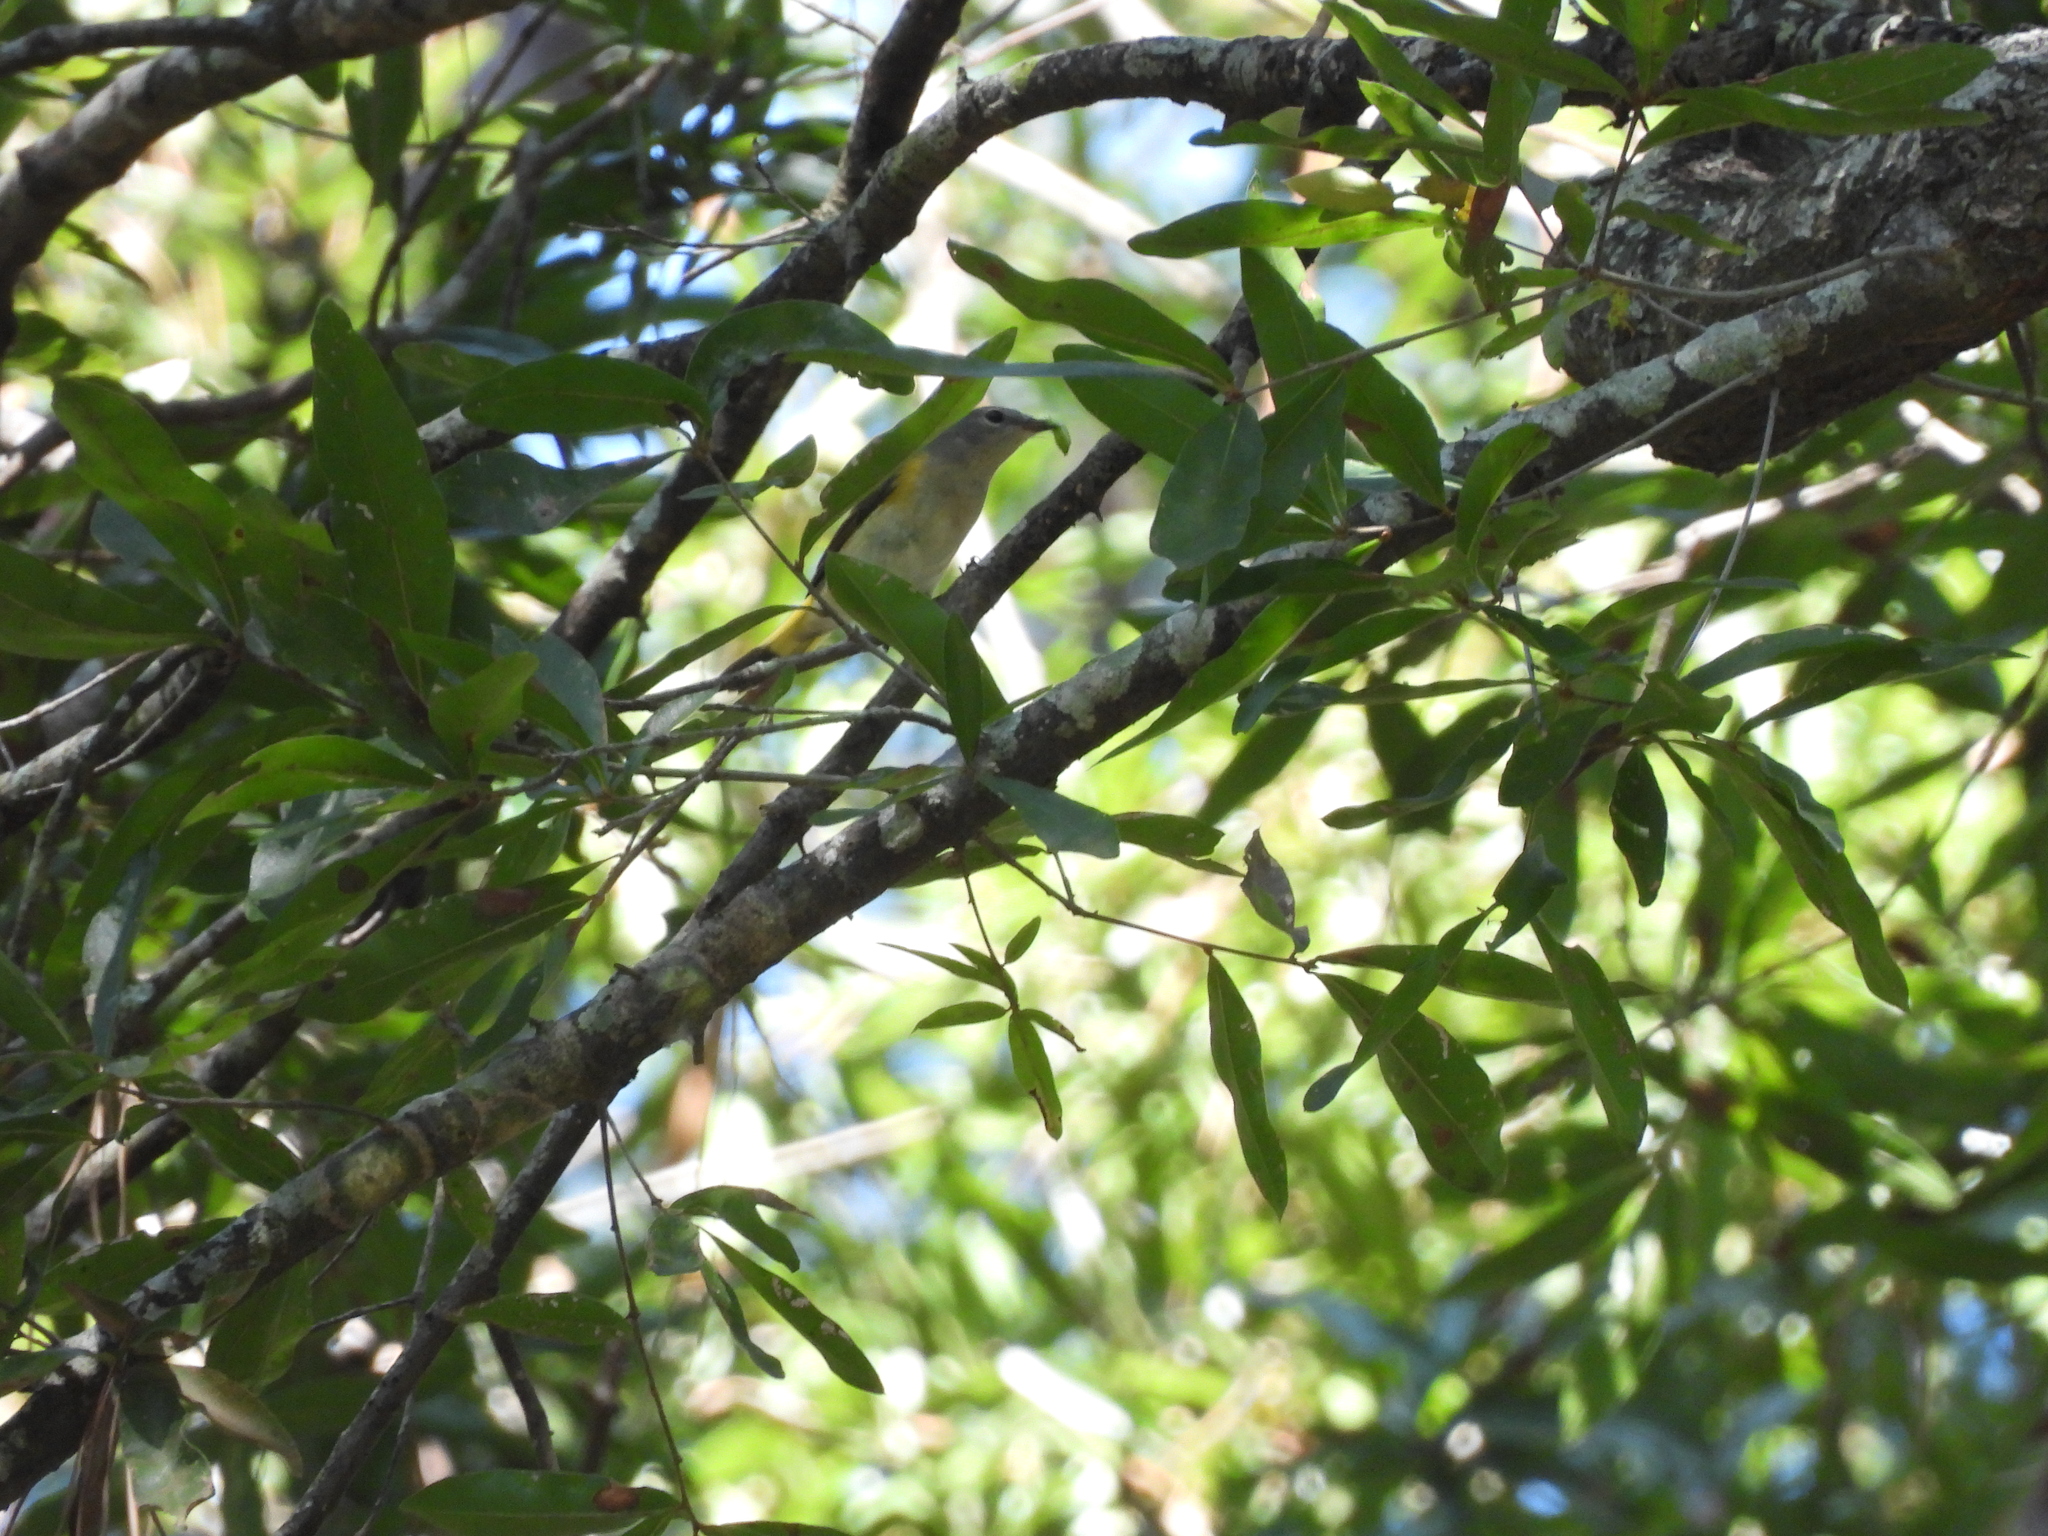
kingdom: Animalia
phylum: Chordata
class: Aves
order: Passeriformes
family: Parulidae
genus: Setophaga
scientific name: Setophaga ruticilla
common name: American redstart
